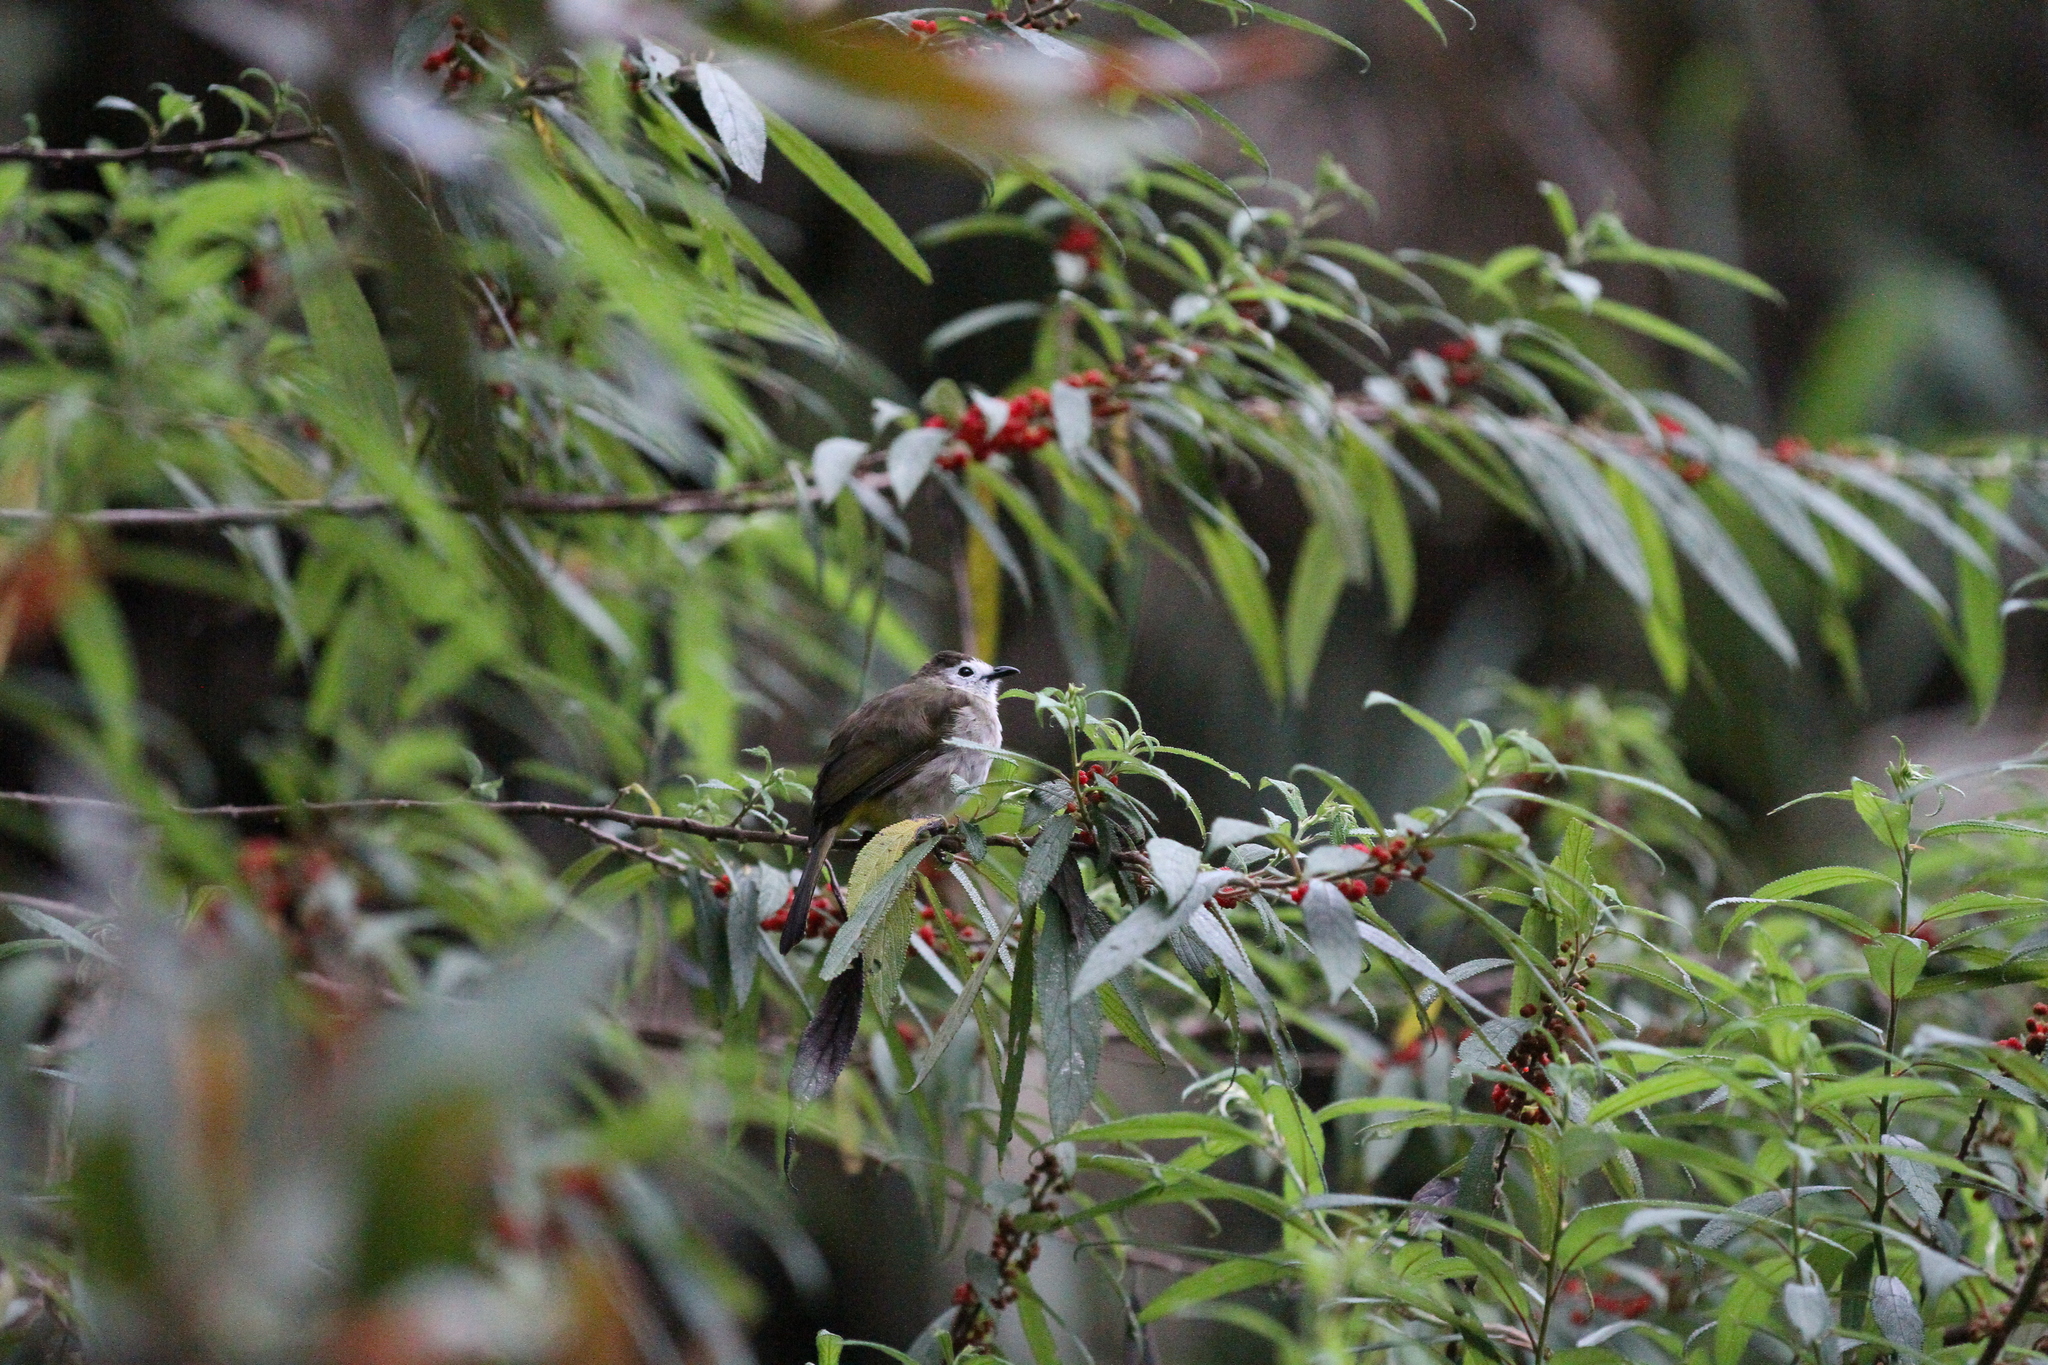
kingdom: Animalia
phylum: Chordata
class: Aves
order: Passeriformes
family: Pycnonotidae
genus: Pycnonotus
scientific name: Pycnonotus flavescens
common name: Flavescent bulbul
